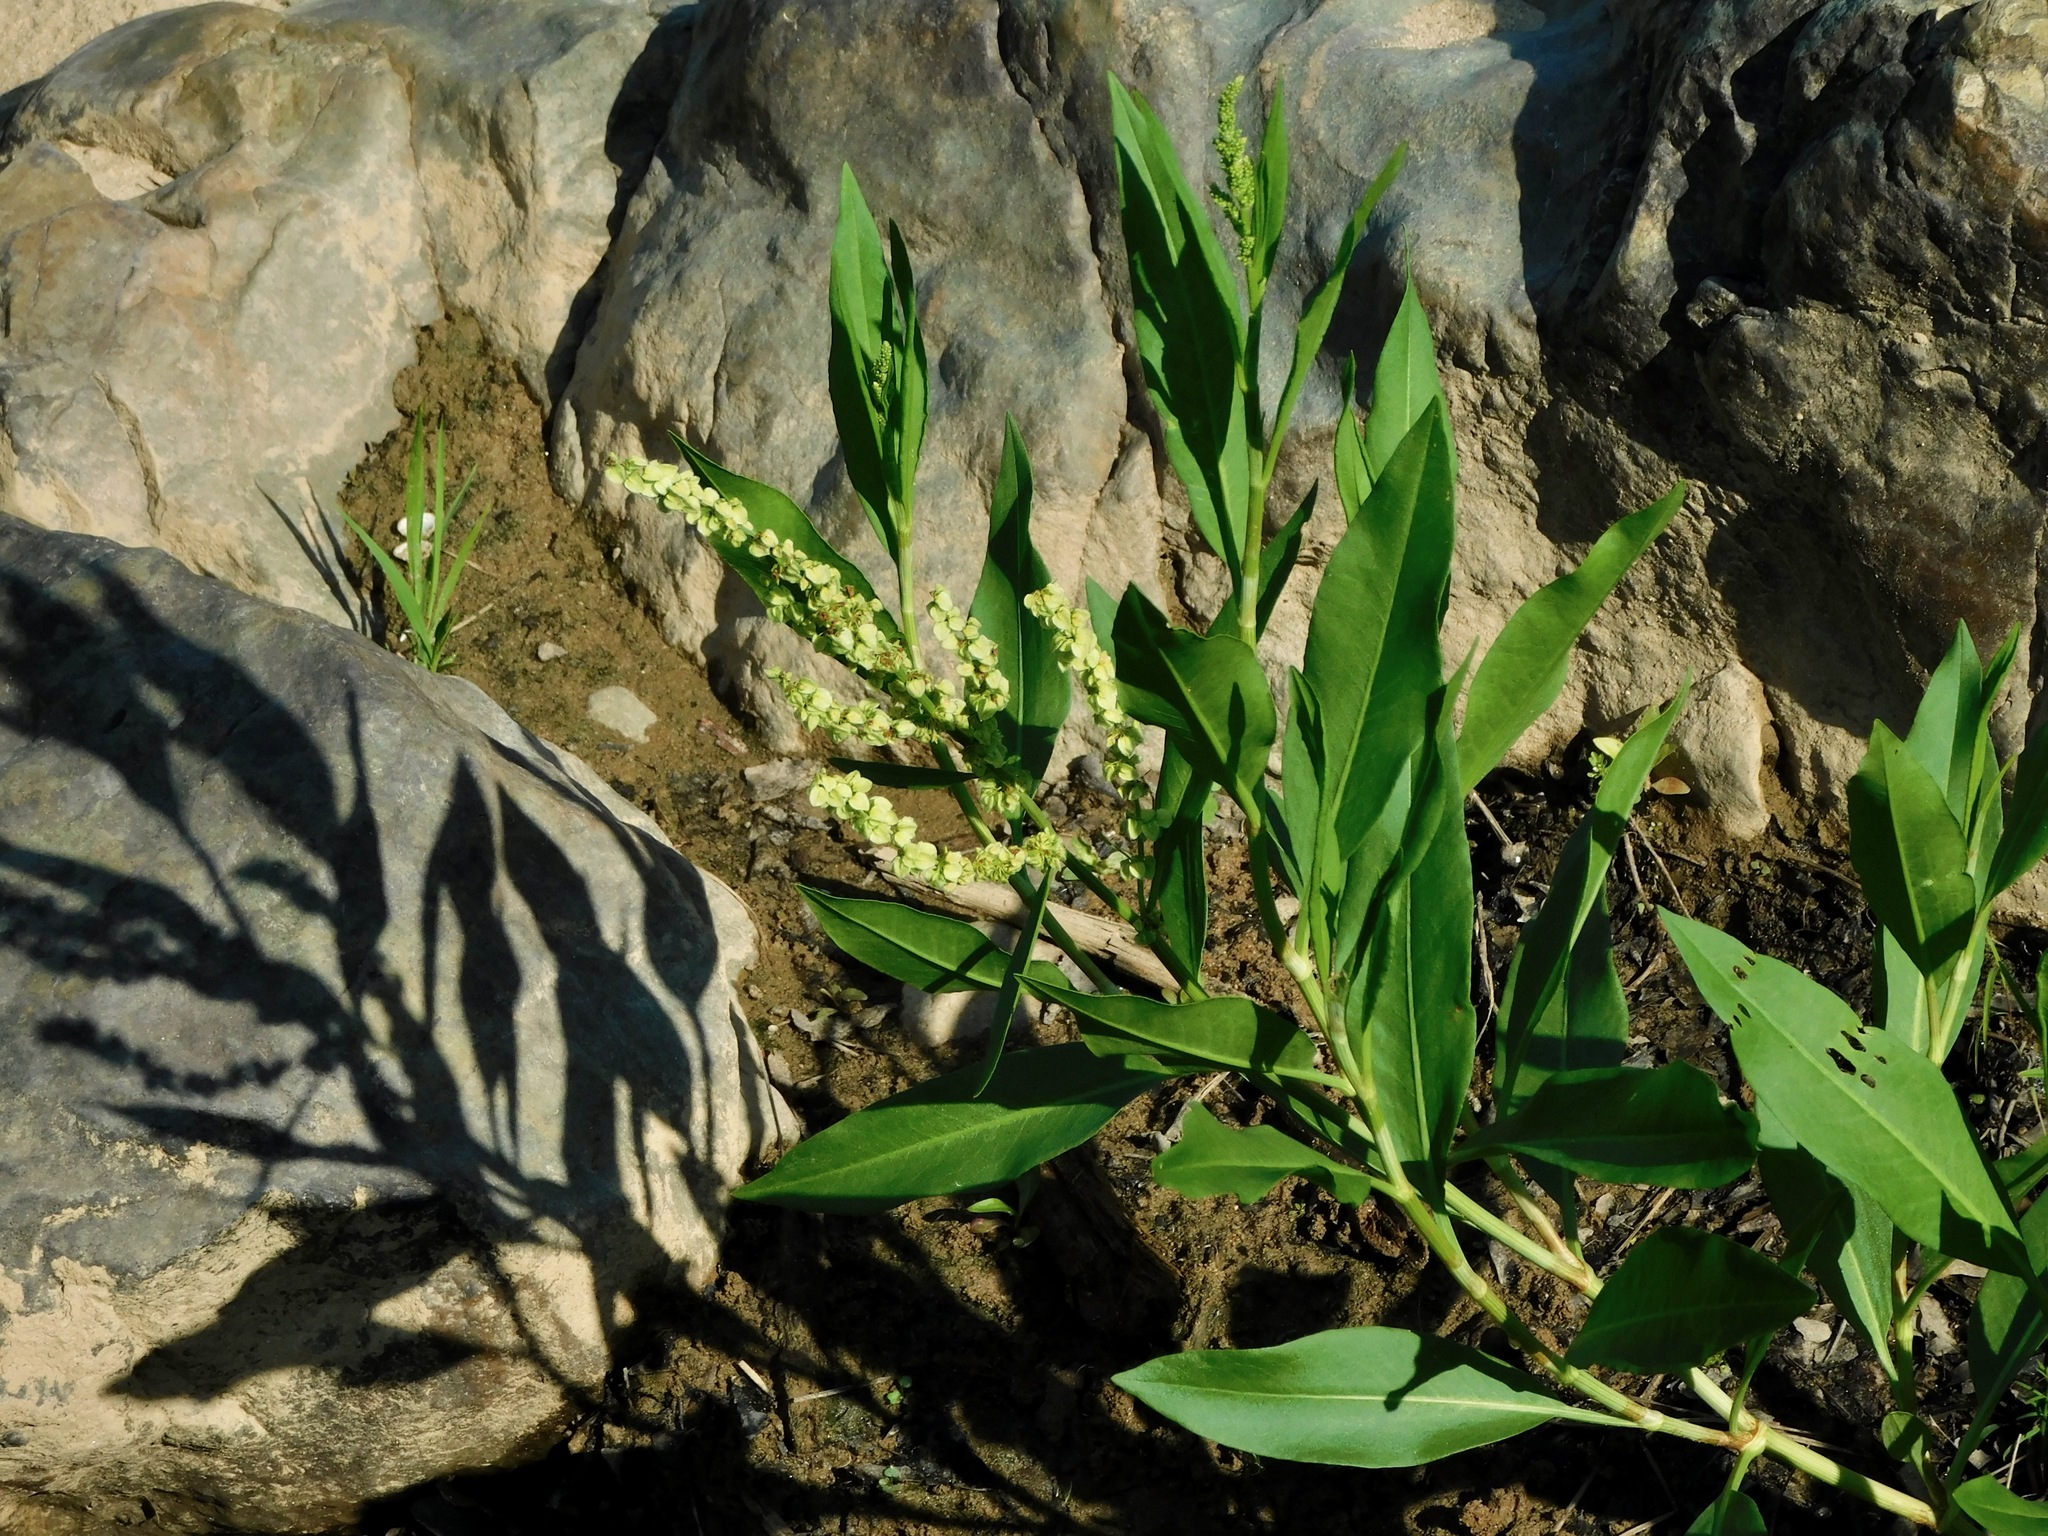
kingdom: Plantae
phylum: Tracheophyta
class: Magnoliopsida
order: Caryophyllales
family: Polygonaceae
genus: Rumex
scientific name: Rumex altissimus
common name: Smooth dock
